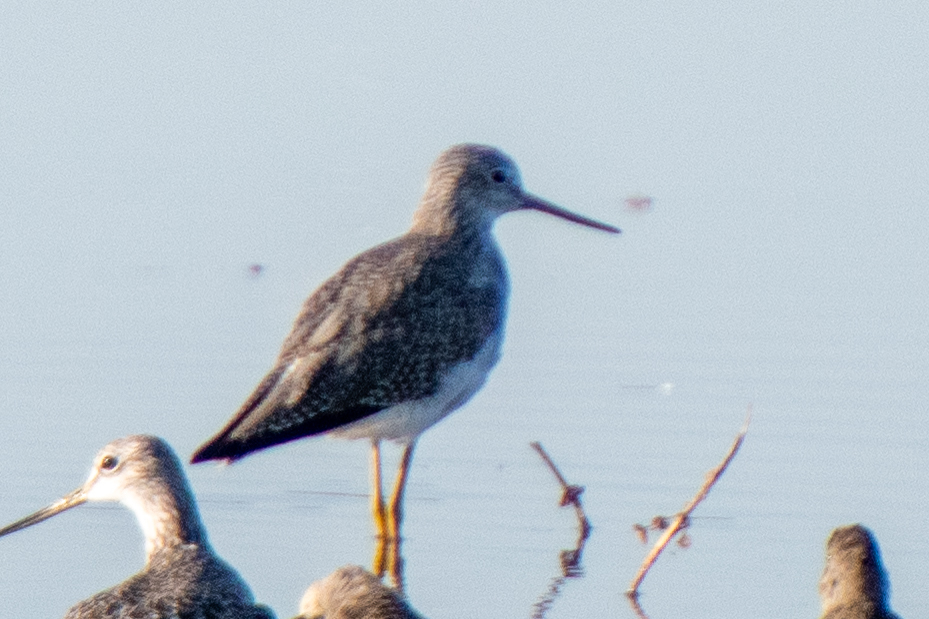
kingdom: Animalia
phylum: Chordata
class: Aves
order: Charadriiformes
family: Scolopacidae
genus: Tringa
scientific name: Tringa melanoleuca
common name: Greater yellowlegs
